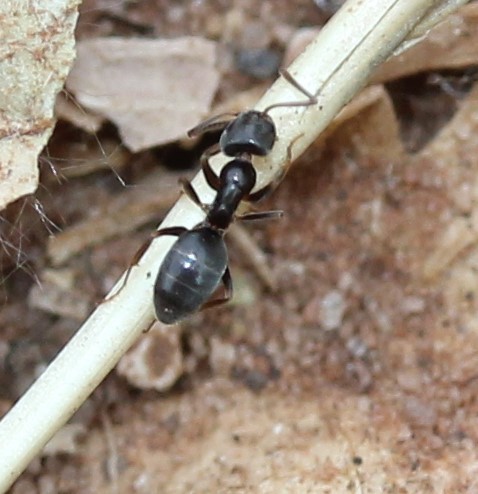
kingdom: Animalia
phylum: Arthropoda
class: Insecta
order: Hymenoptera
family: Formicidae
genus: Tapinoma
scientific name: Tapinoma sessile
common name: Odorous house ant
